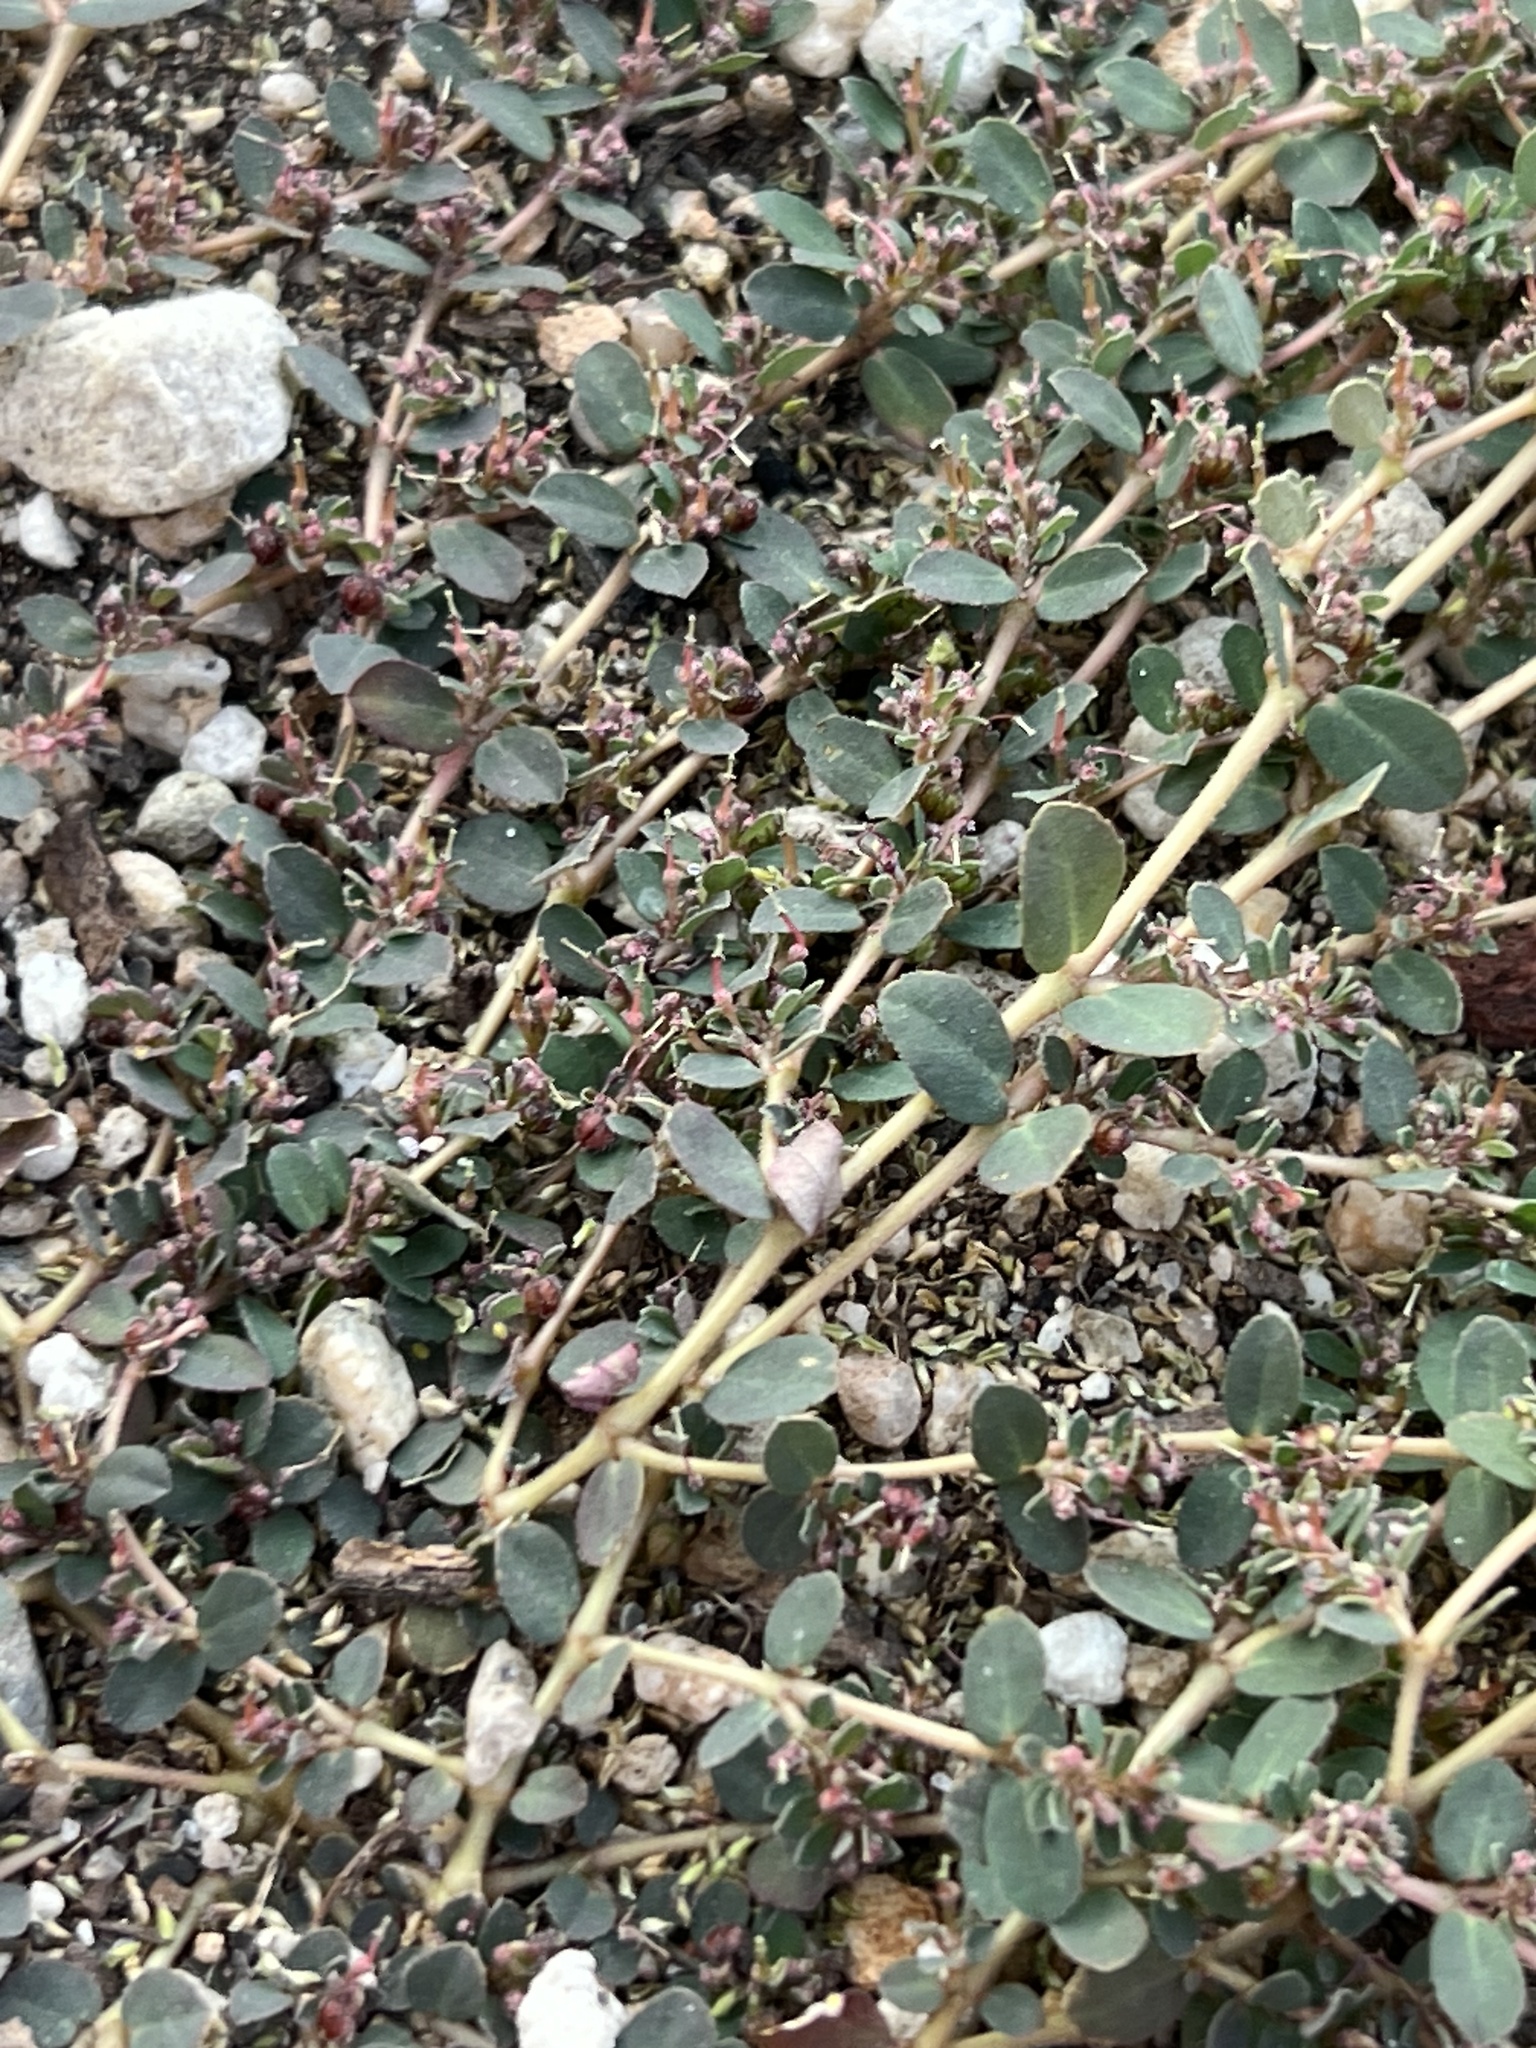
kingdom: Plantae
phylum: Tracheophyta
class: Magnoliopsida
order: Malpighiales
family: Euphorbiaceae
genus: Euphorbia
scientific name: Euphorbia prostrata
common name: Prostrate sandmat
